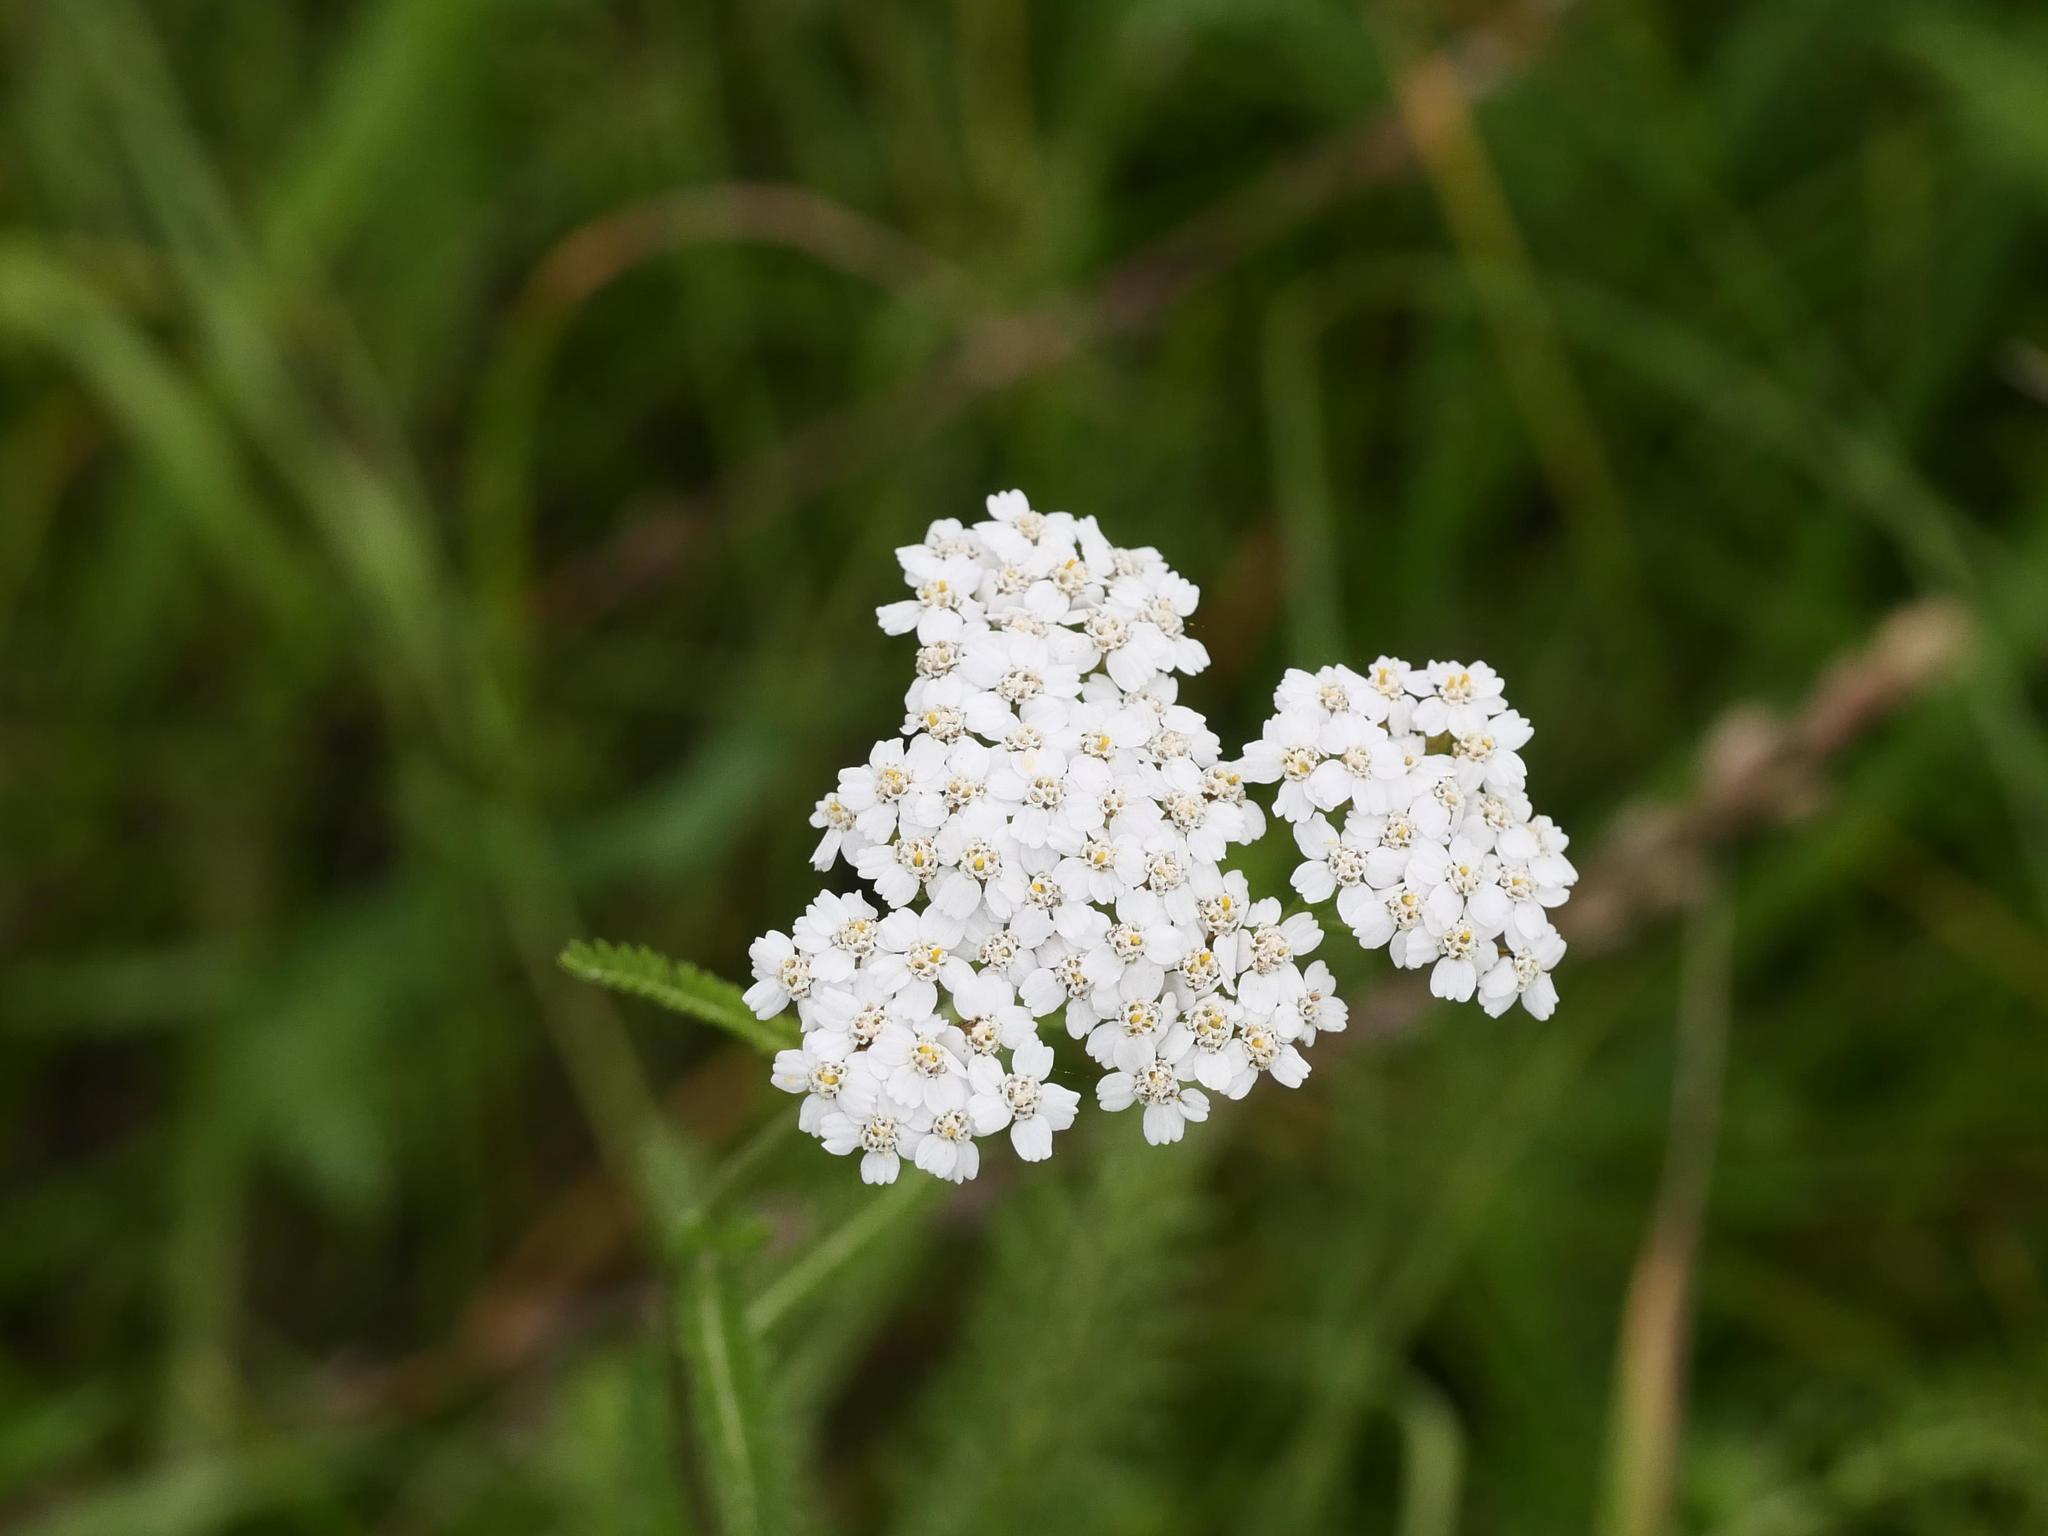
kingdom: Plantae
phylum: Tracheophyta
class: Magnoliopsida
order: Asterales
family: Asteraceae
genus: Achillea
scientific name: Achillea millefolium
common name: Yarrow
